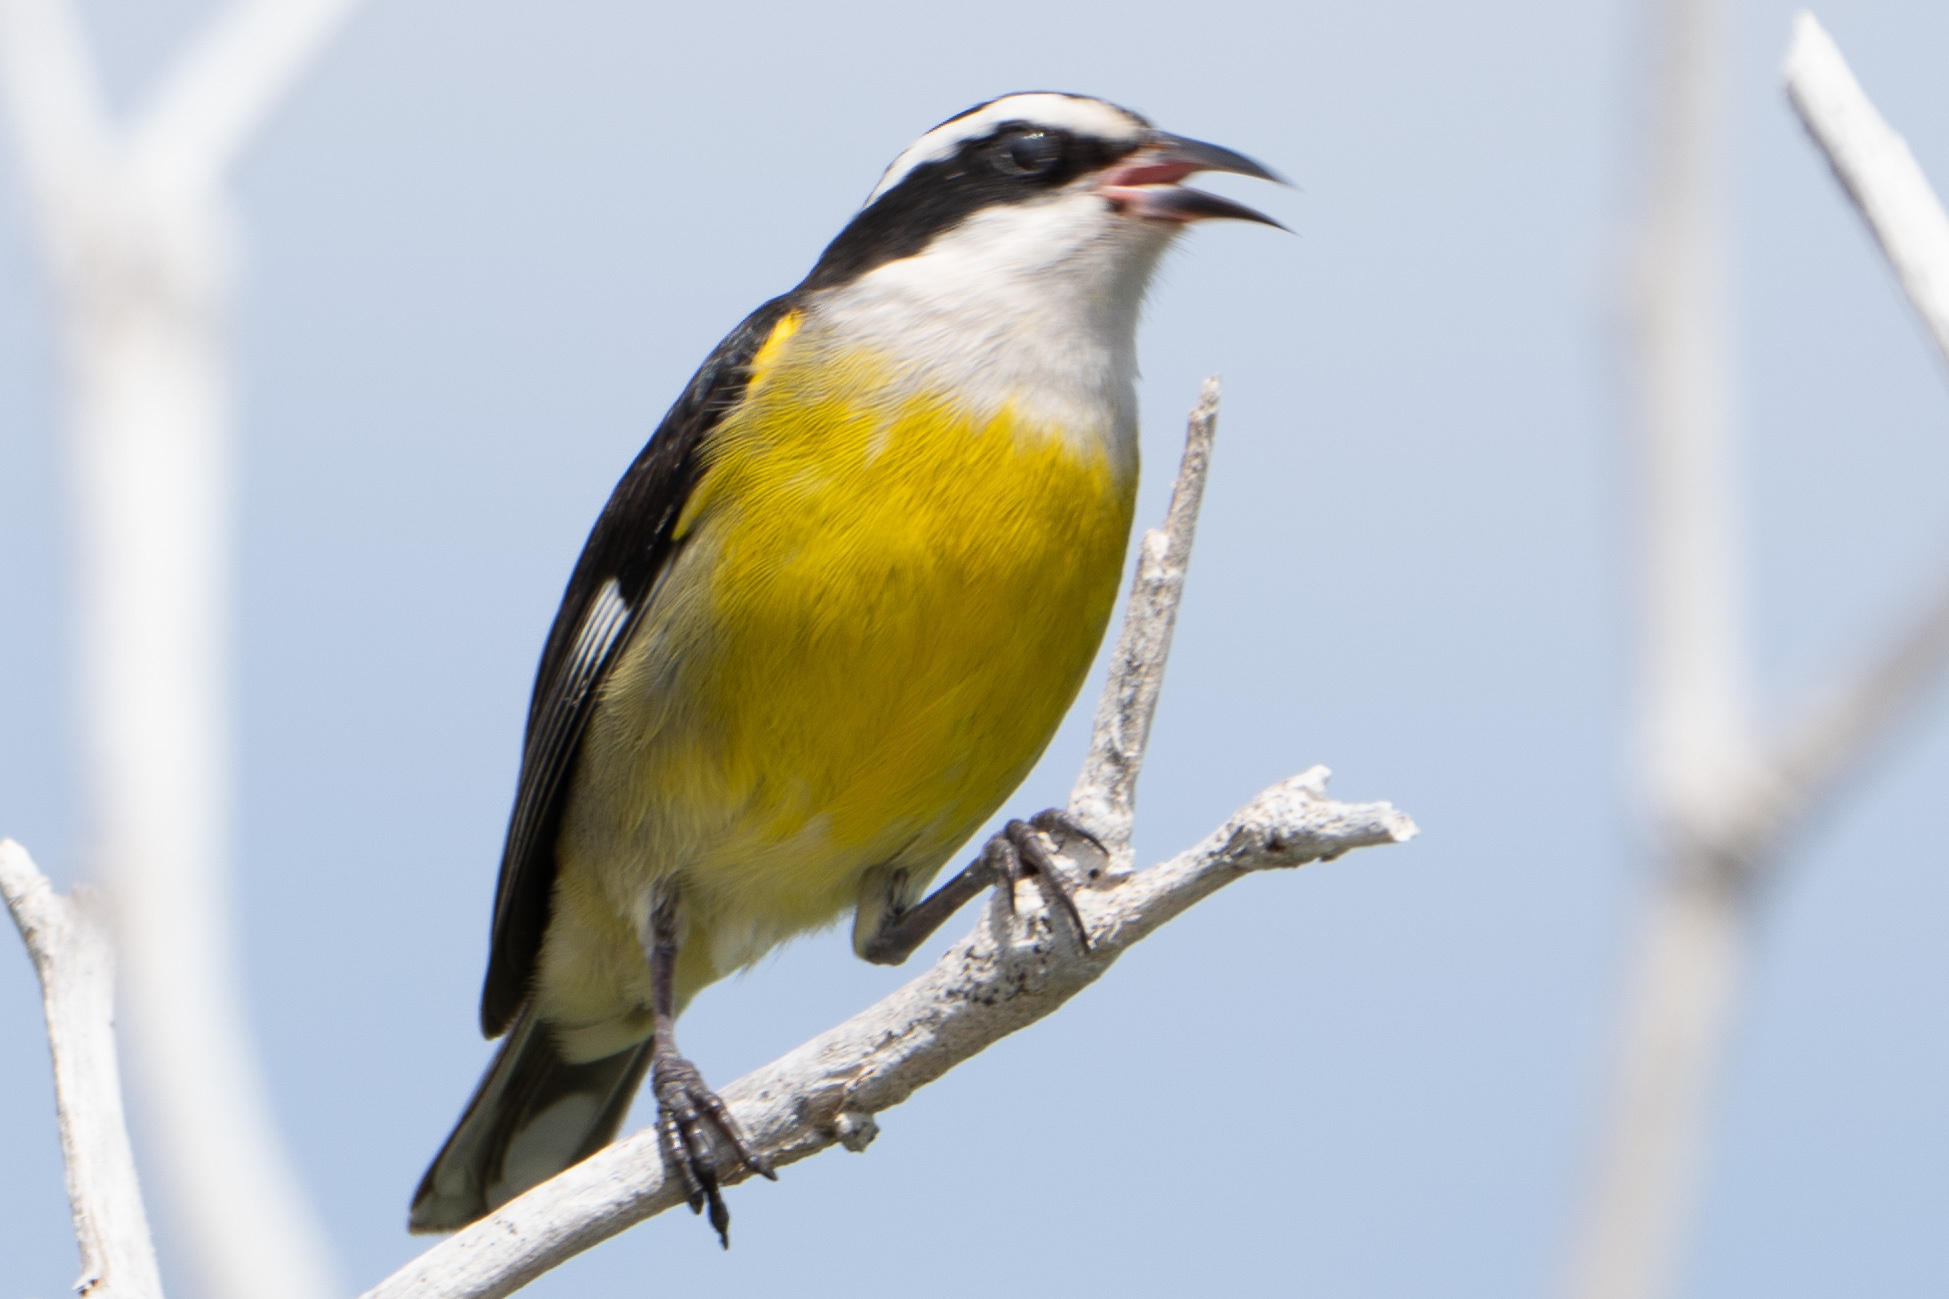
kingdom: Animalia
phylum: Chordata
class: Aves
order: Passeriformes
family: Thraupidae
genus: Coereba
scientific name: Coereba flaveola
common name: Bananaquit
